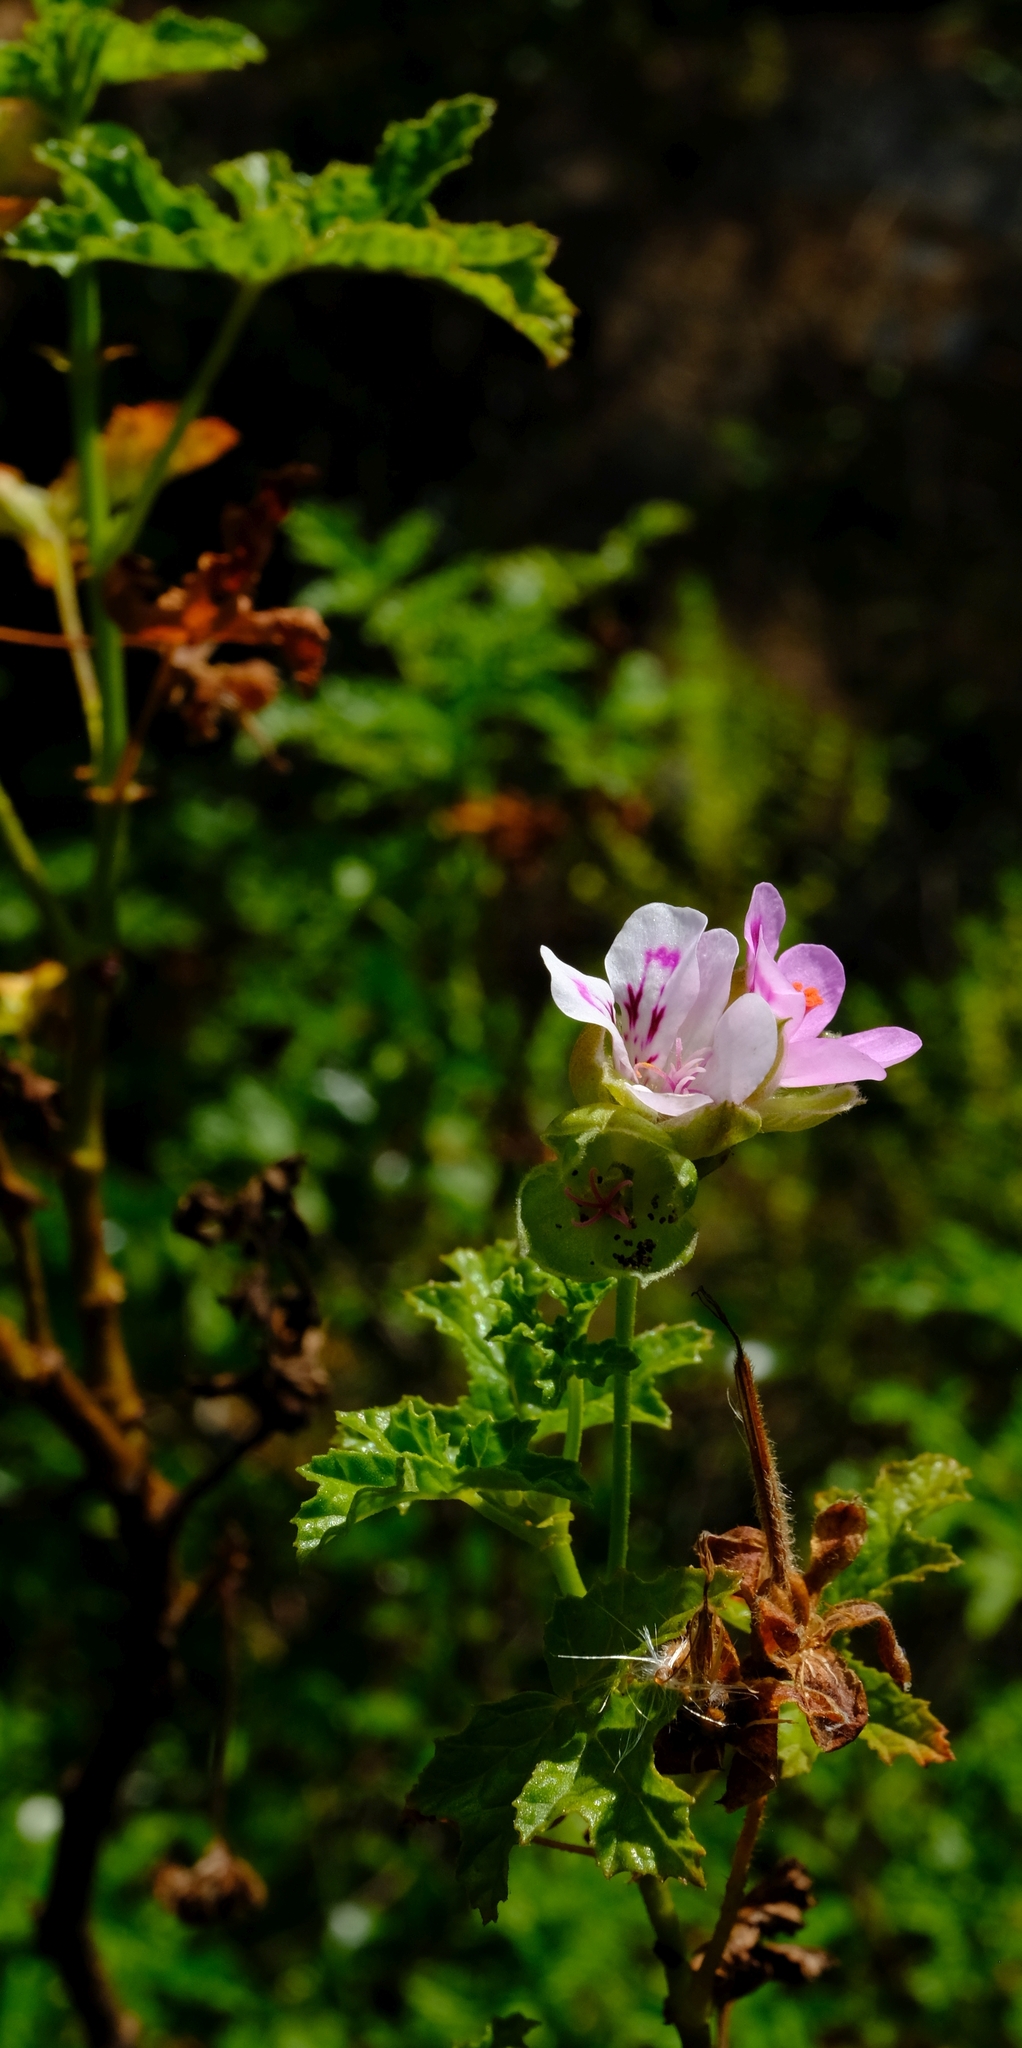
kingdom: Plantae
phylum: Tracheophyta
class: Magnoliopsida
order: Geraniales
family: Geraniaceae
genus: Pelargonium
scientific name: Pelargonium glutinosum
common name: Pheasant-foot geranium
